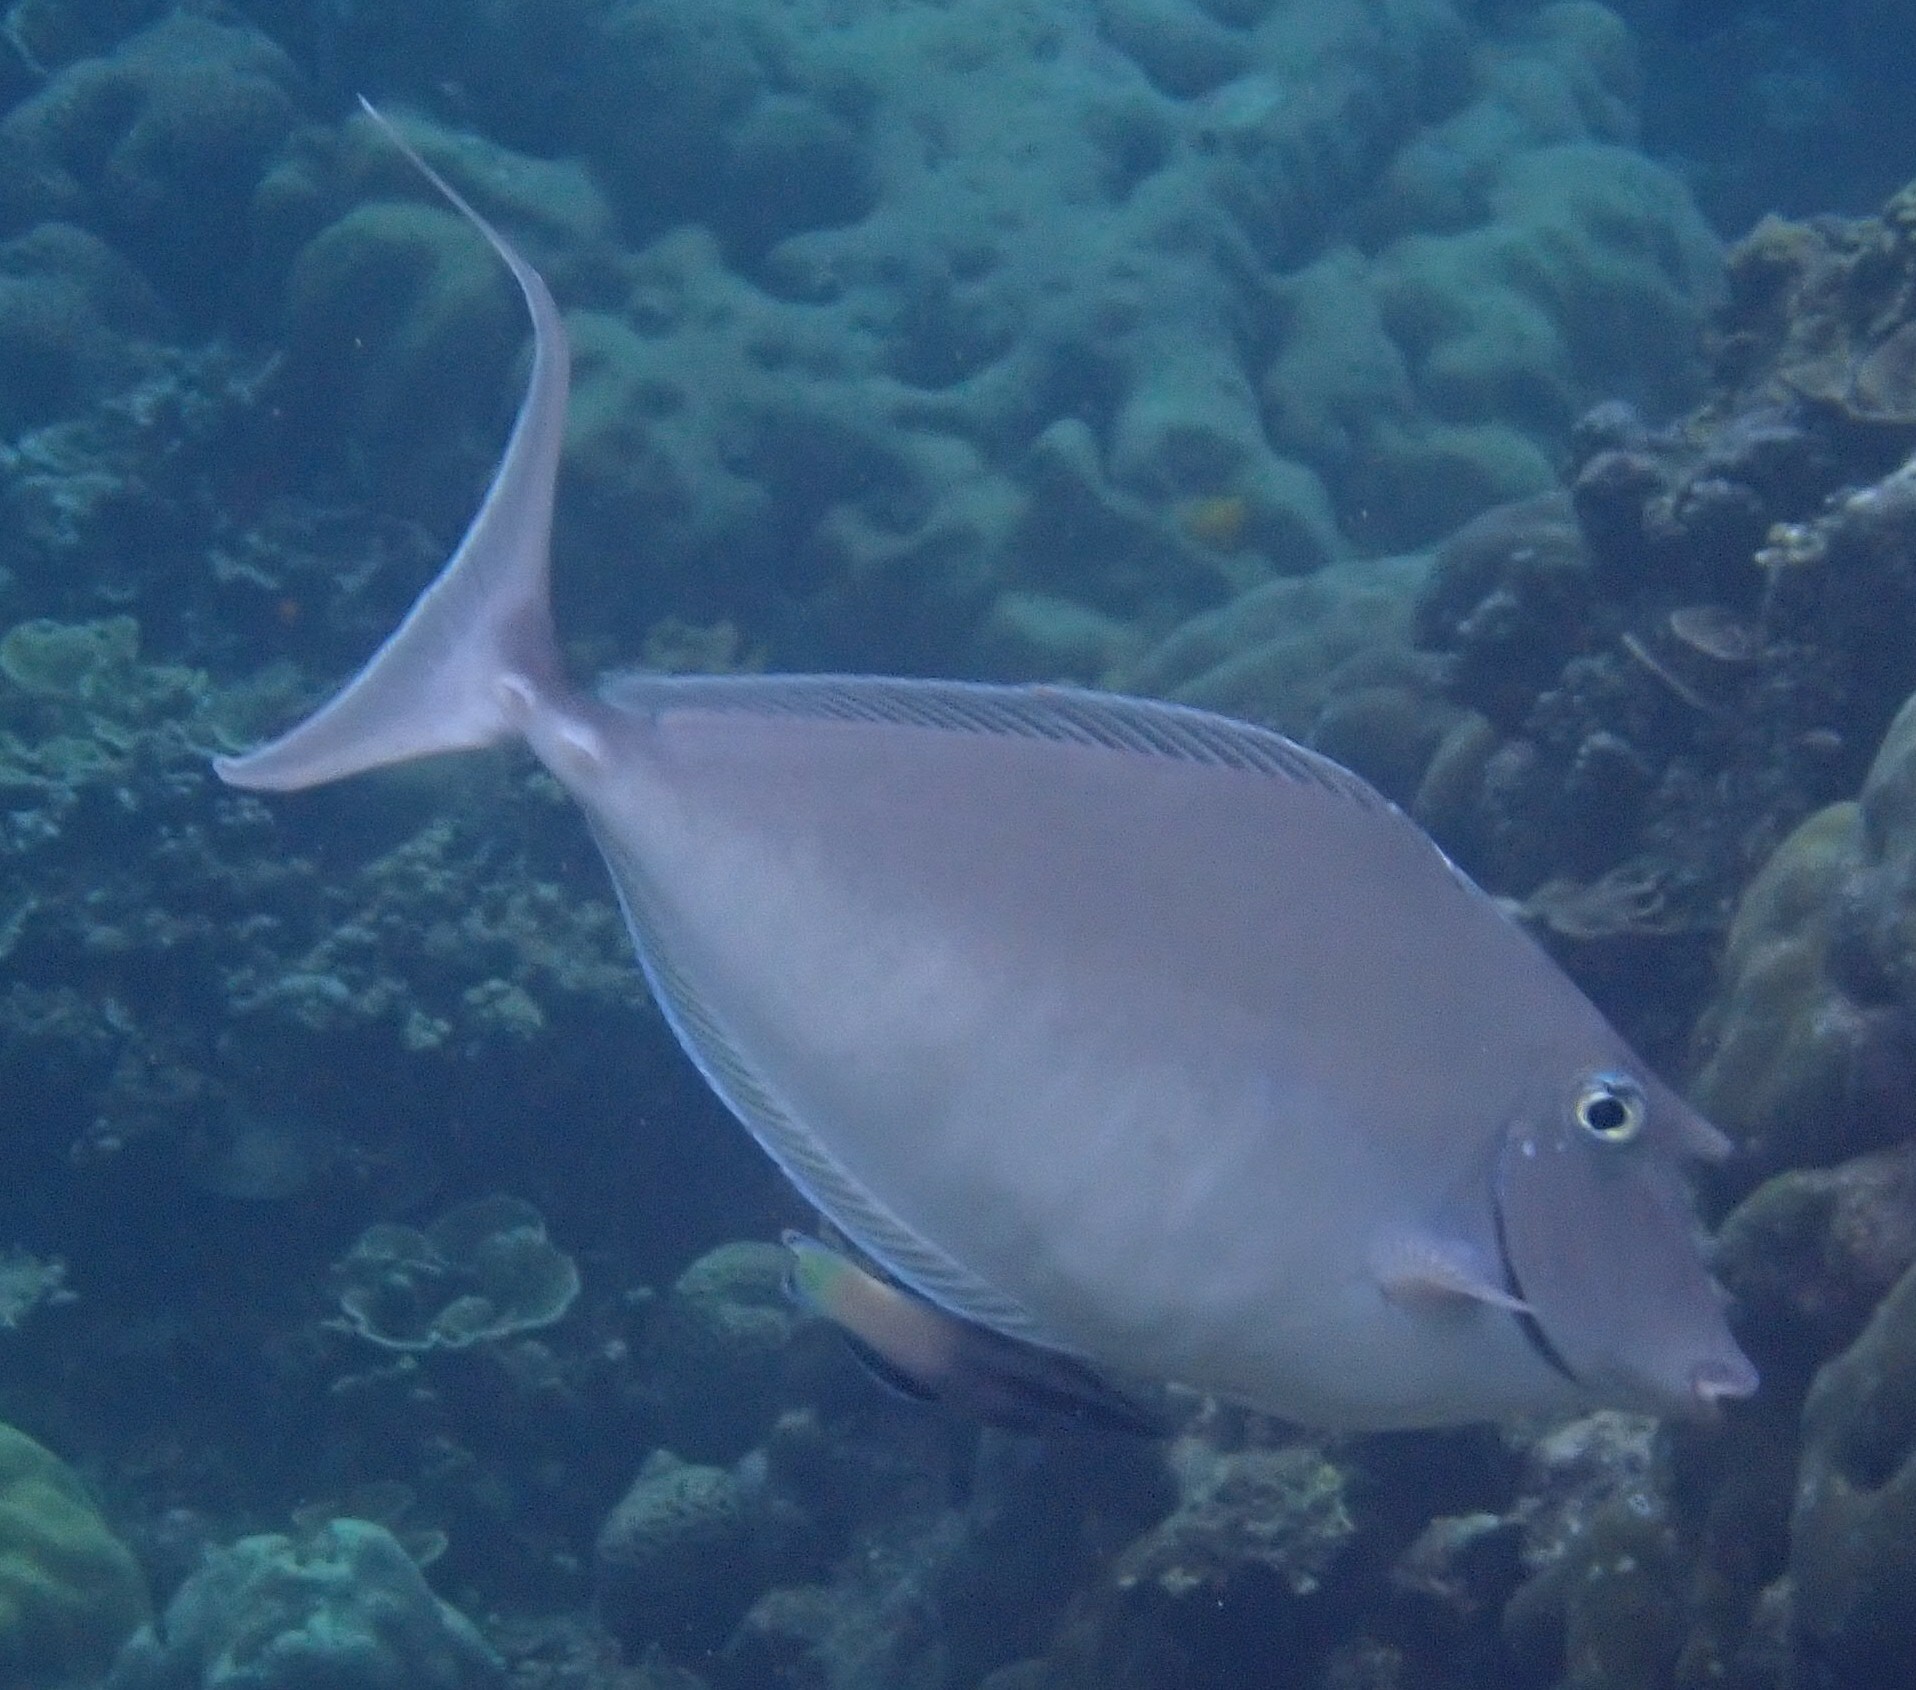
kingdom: Animalia
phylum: Chordata
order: Perciformes
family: Acanthuridae
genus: Naso
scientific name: Naso brachycentron
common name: Humpback unicornfish
